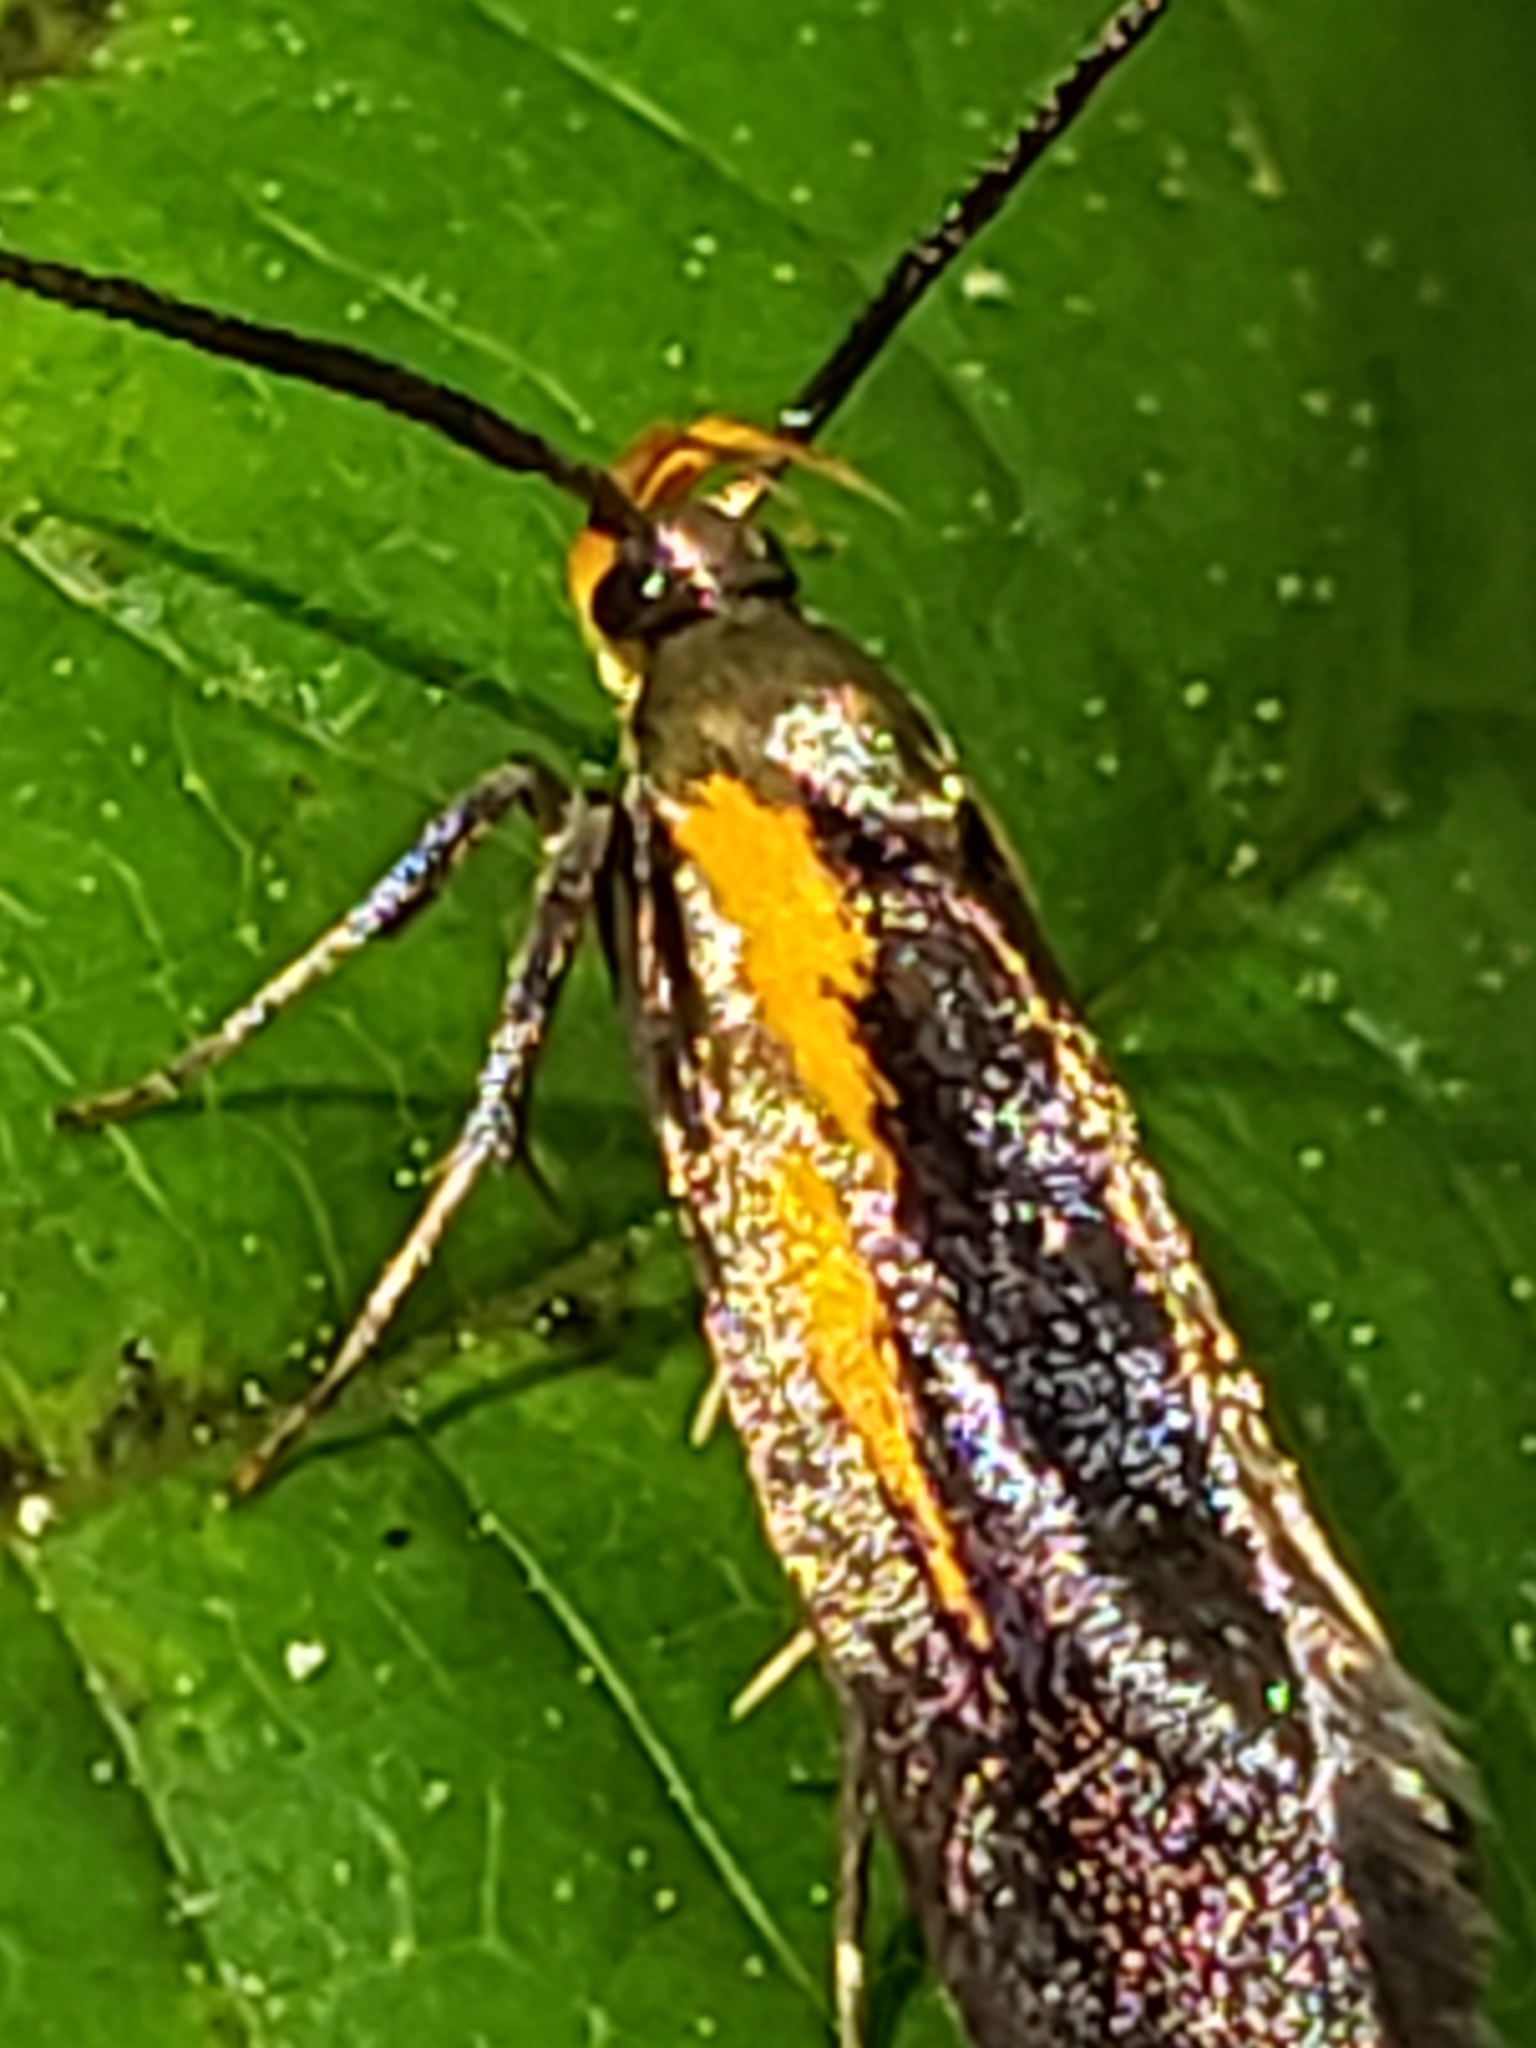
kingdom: Animalia
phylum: Arthropoda
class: Insecta
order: Lepidoptera
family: Oecophoridae
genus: Mathildana
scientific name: Mathildana newmanella
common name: Newman's mathildana moth
